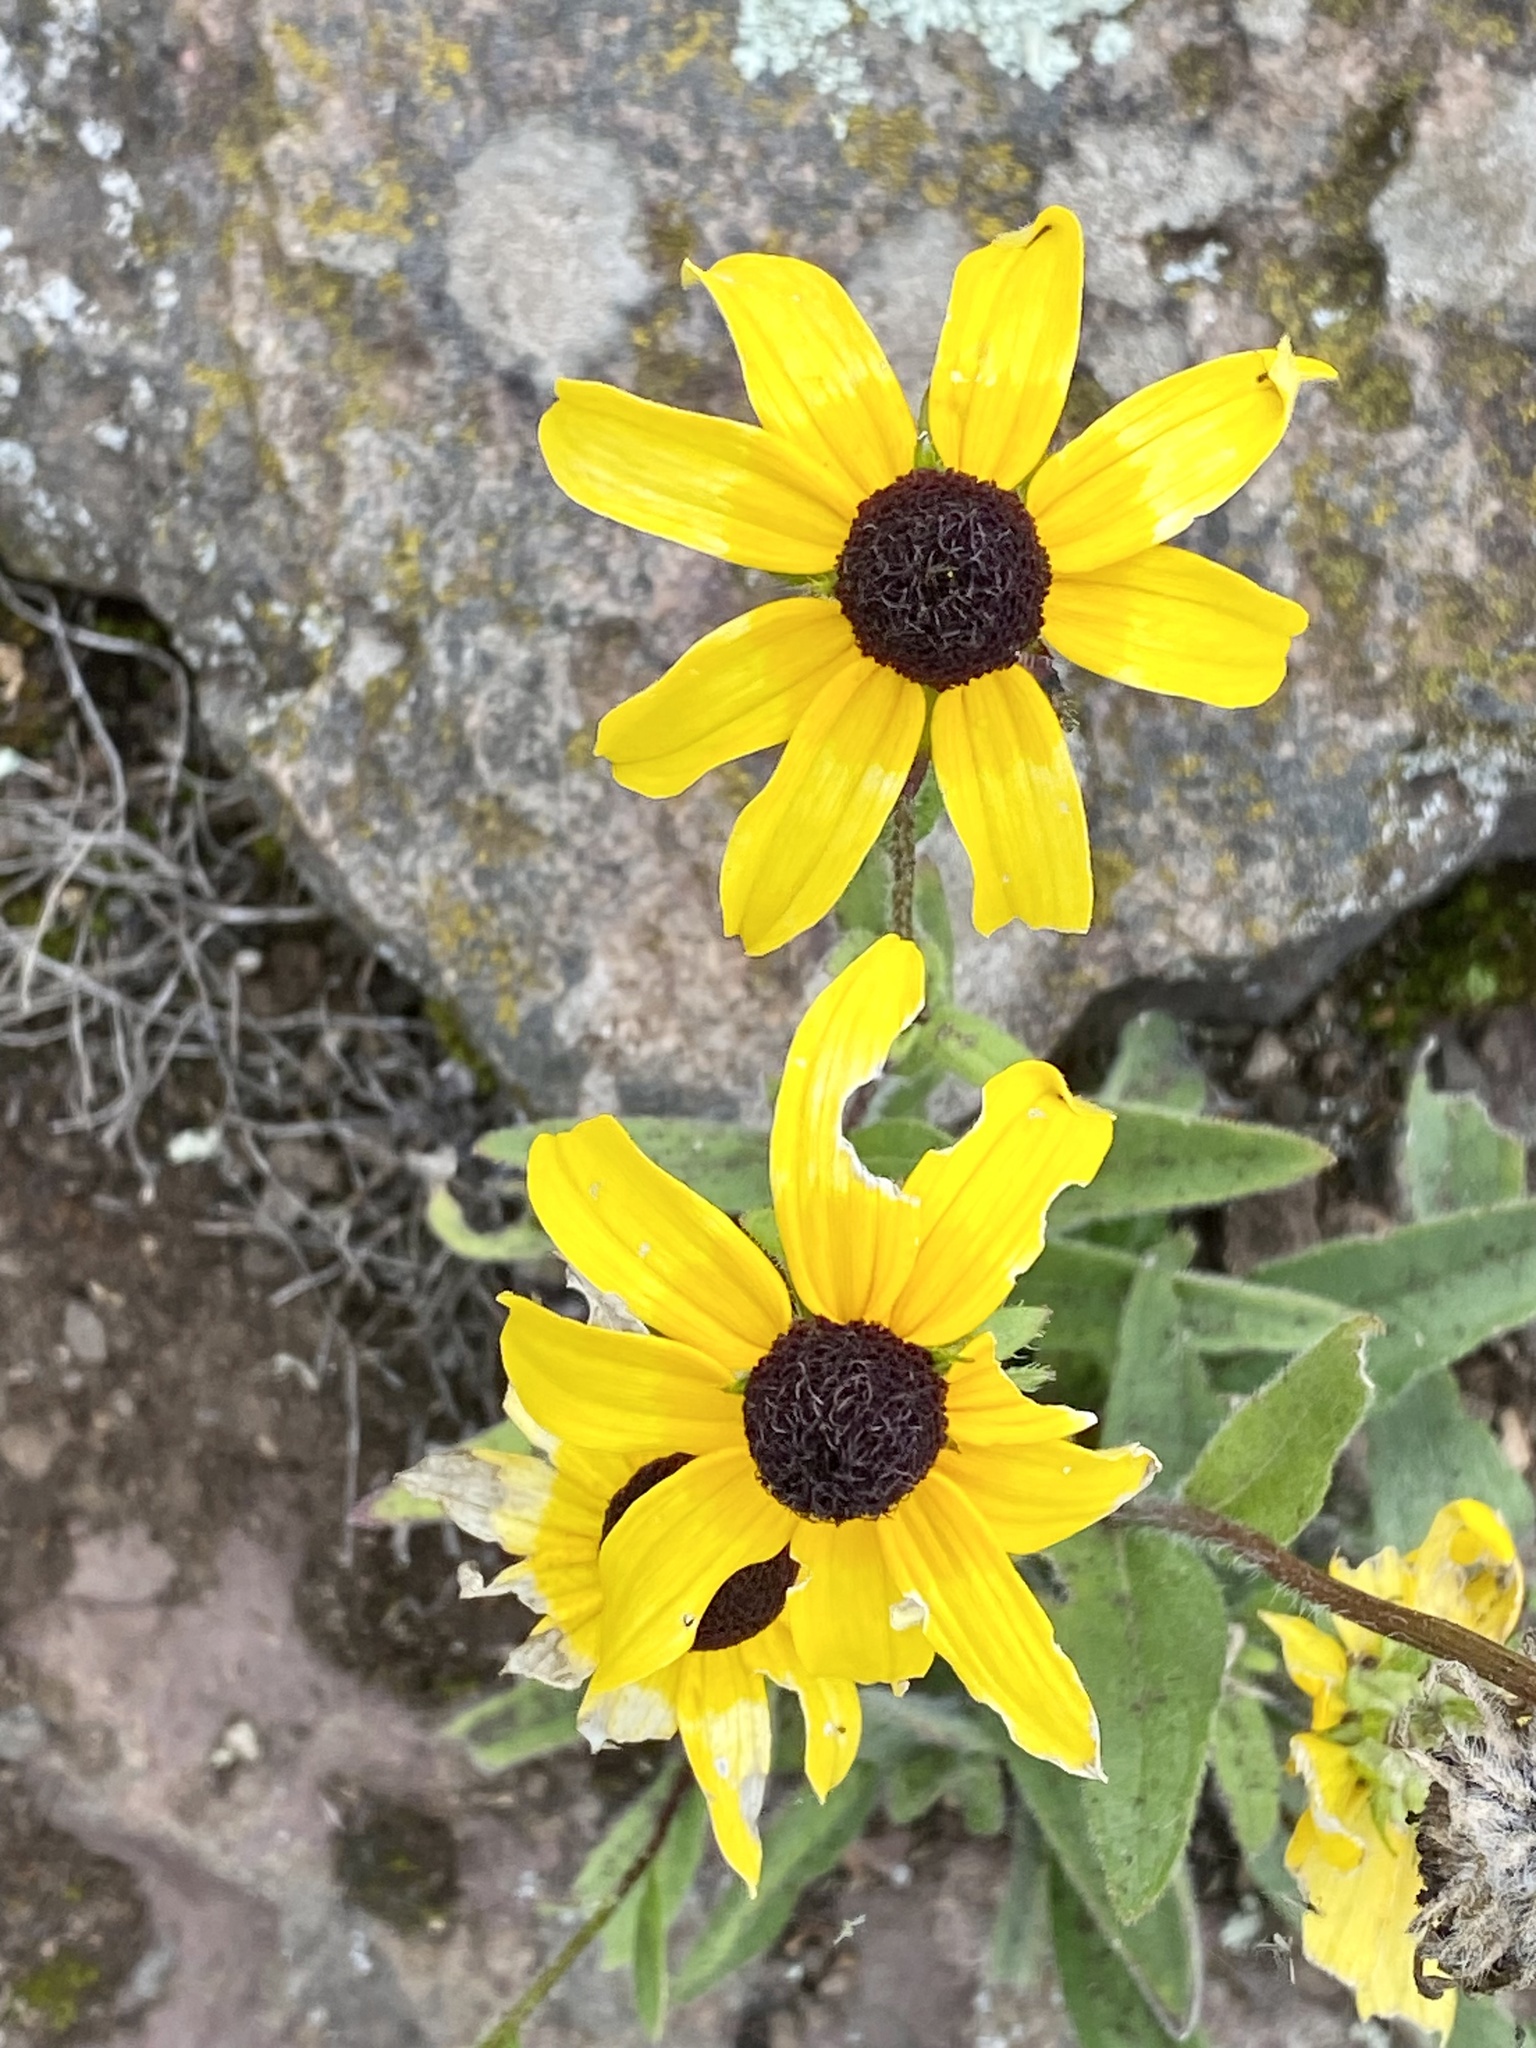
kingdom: Plantae
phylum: Tracheophyta
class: Magnoliopsida
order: Asterales
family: Asteraceae
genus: Rudbeckia
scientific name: Rudbeckia hirta
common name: Black-eyed-susan
